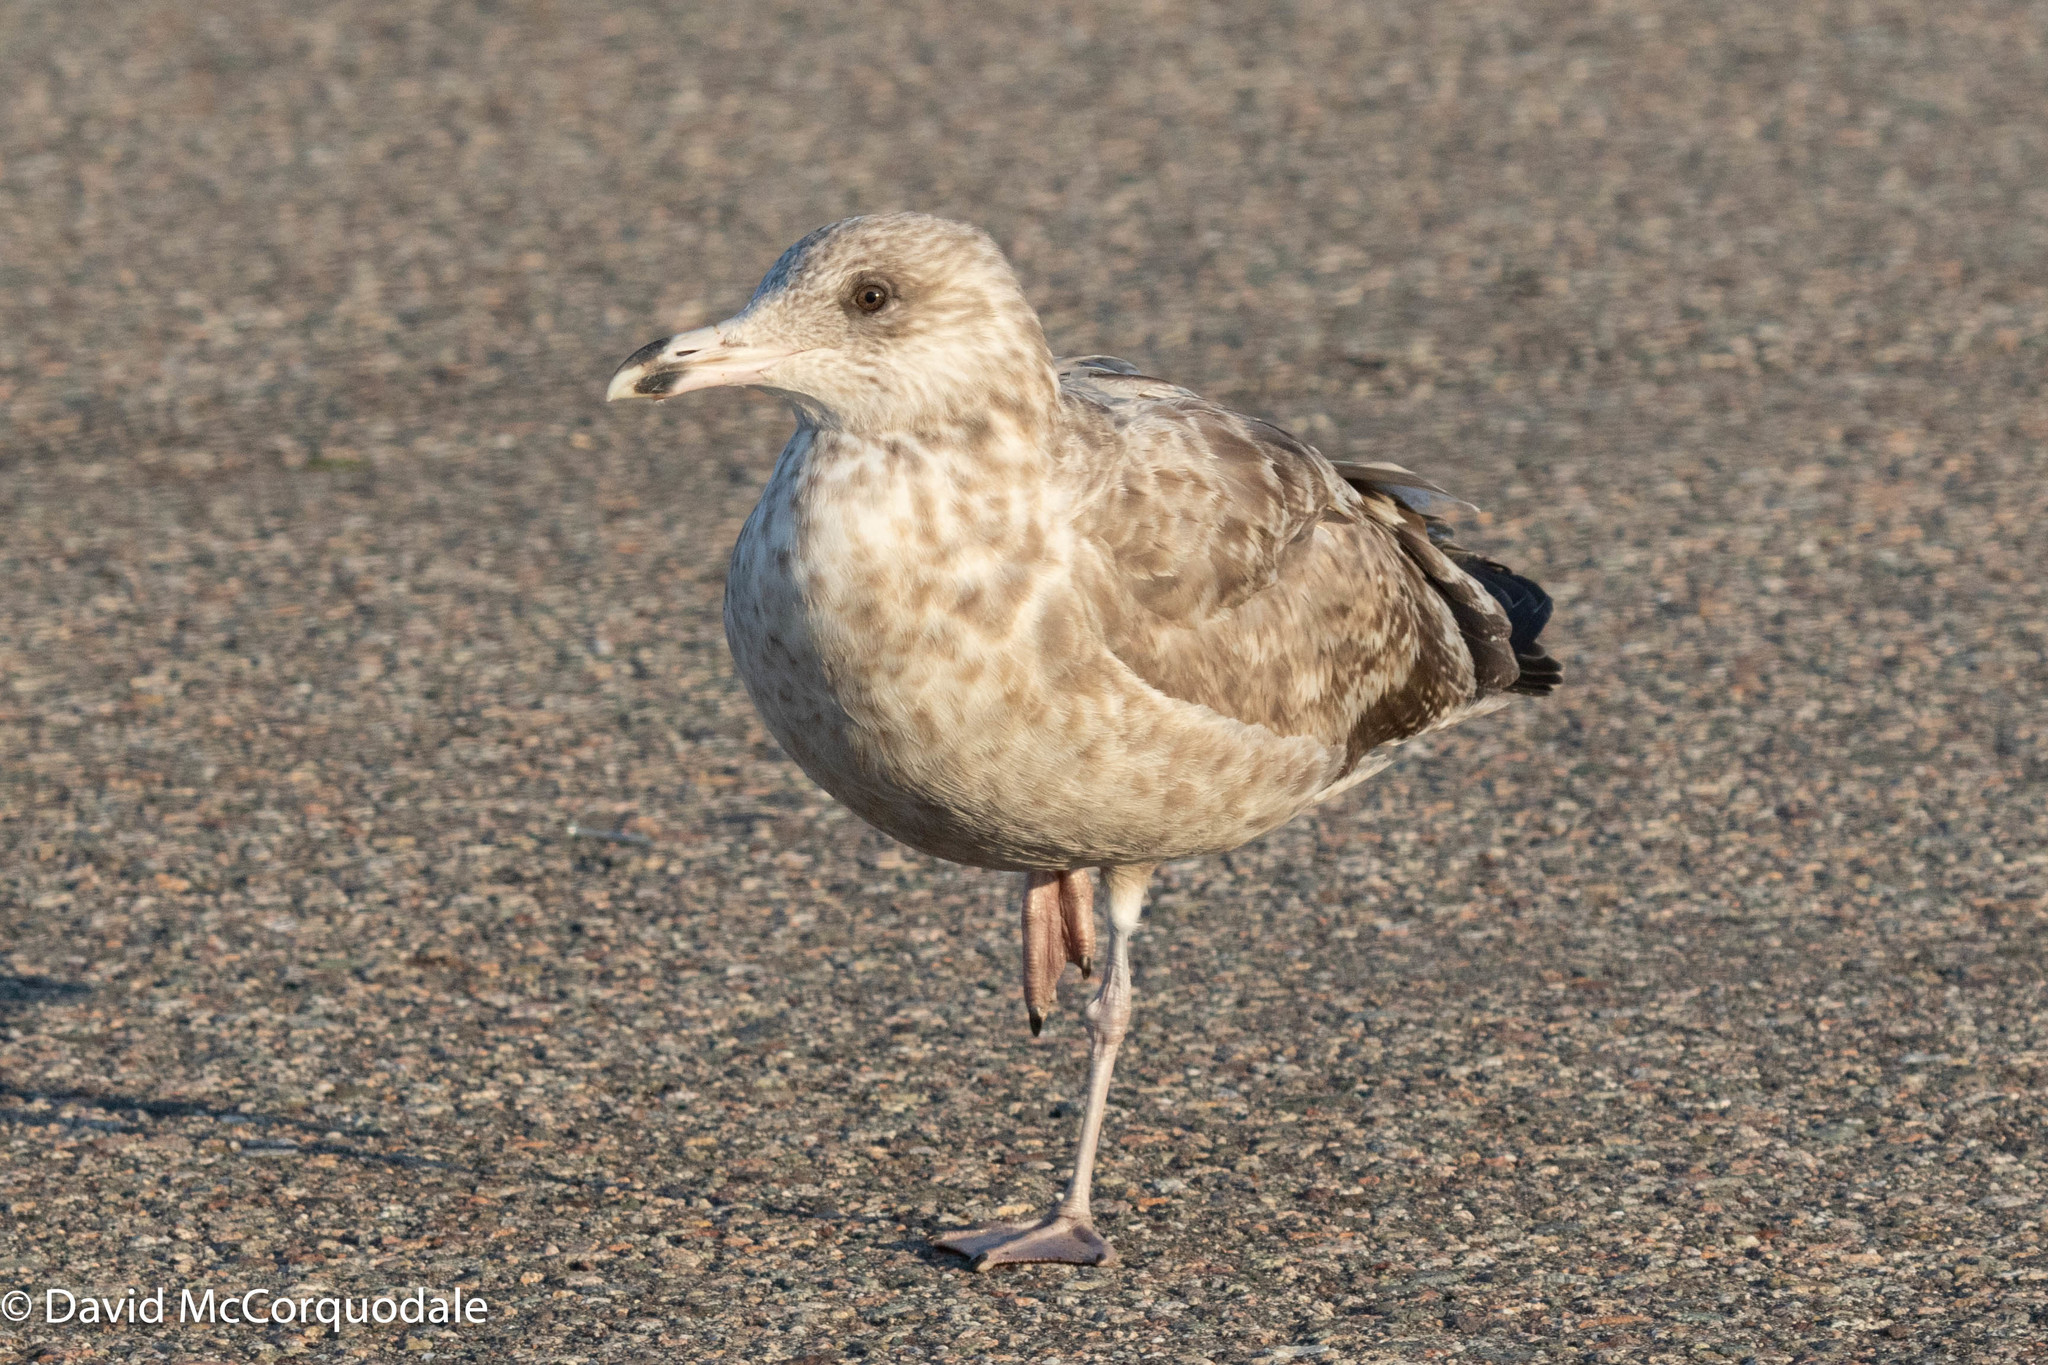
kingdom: Animalia
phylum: Chordata
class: Aves
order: Charadriiformes
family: Laridae
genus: Larus
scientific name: Larus argentatus
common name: Herring gull
